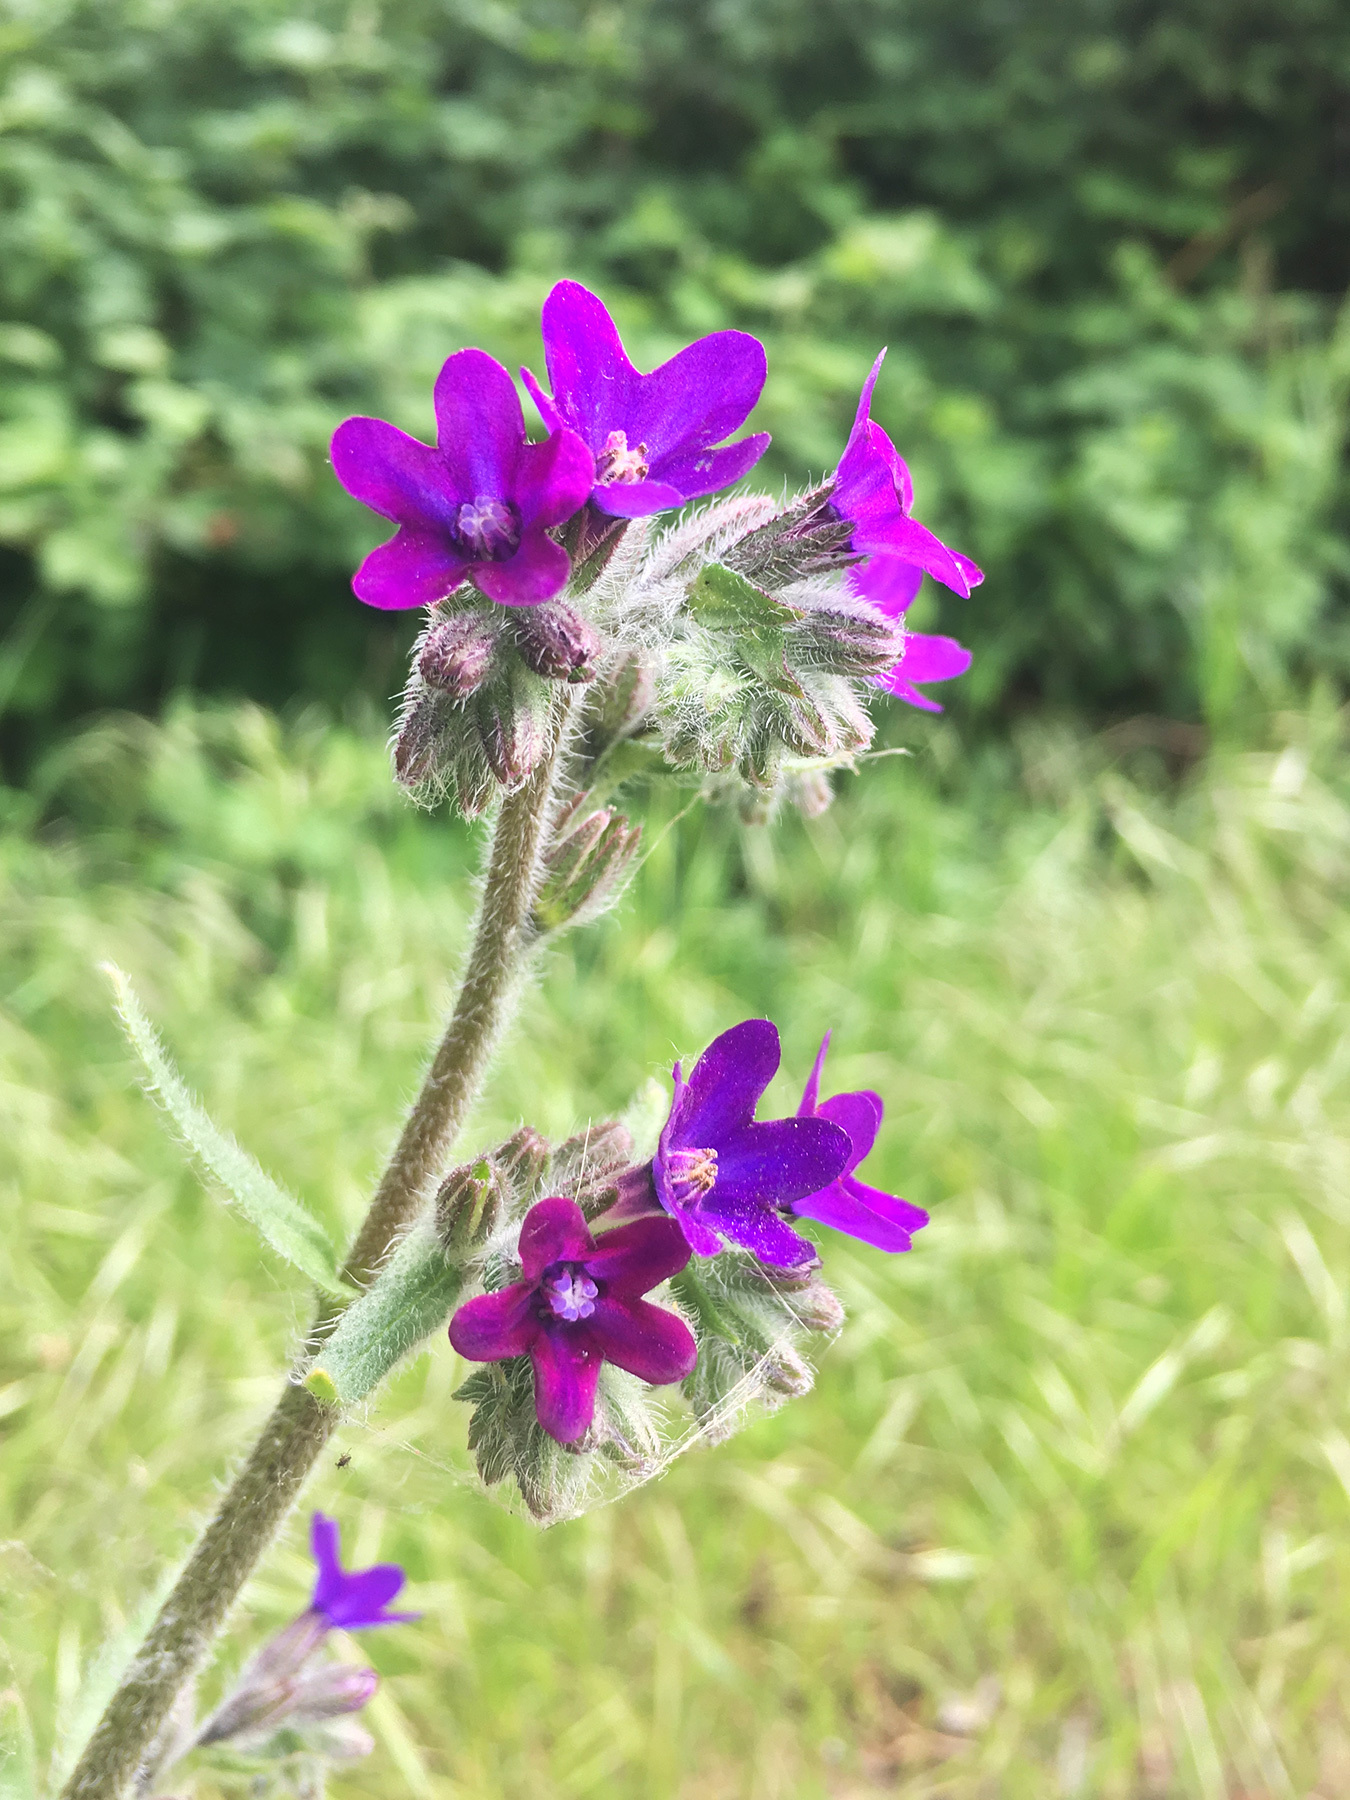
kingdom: Plantae
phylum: Tracheophyta
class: Magnoliopsida
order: Boraginales
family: Boraginaceae
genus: Anchusa
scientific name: Anchusa officinalis
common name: Alkanet
